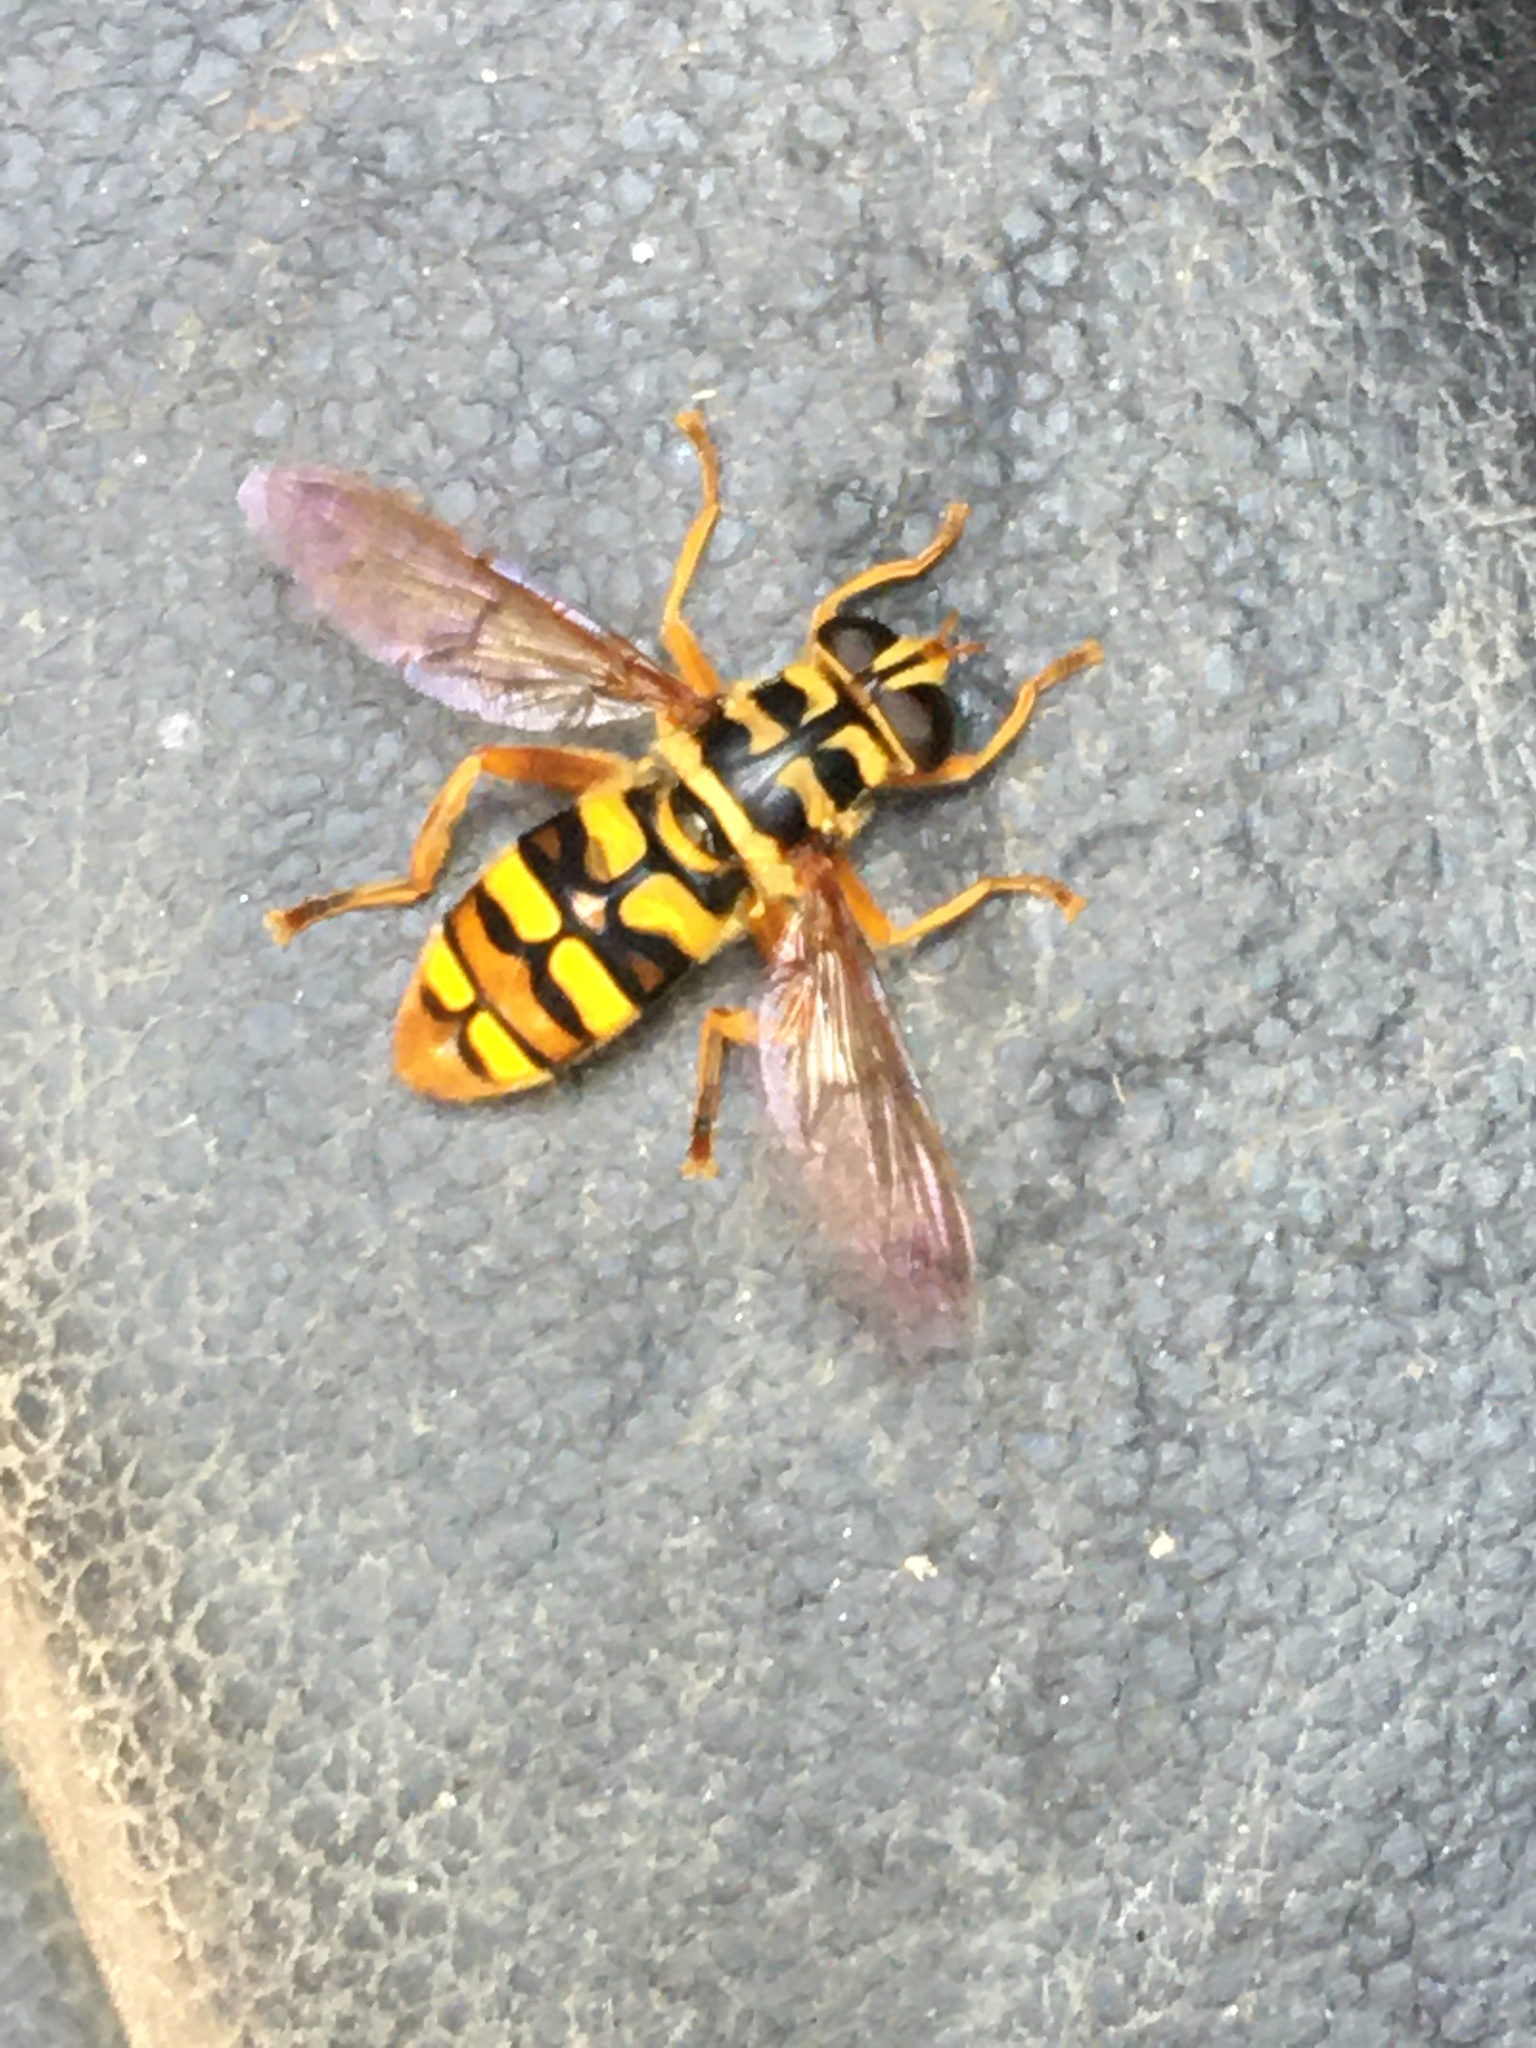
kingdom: Animalia
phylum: Arthropoda
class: Insecta
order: Diptera
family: Syrphidae
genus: Milesia
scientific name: Milesia virginiensis
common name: Virginia giant
